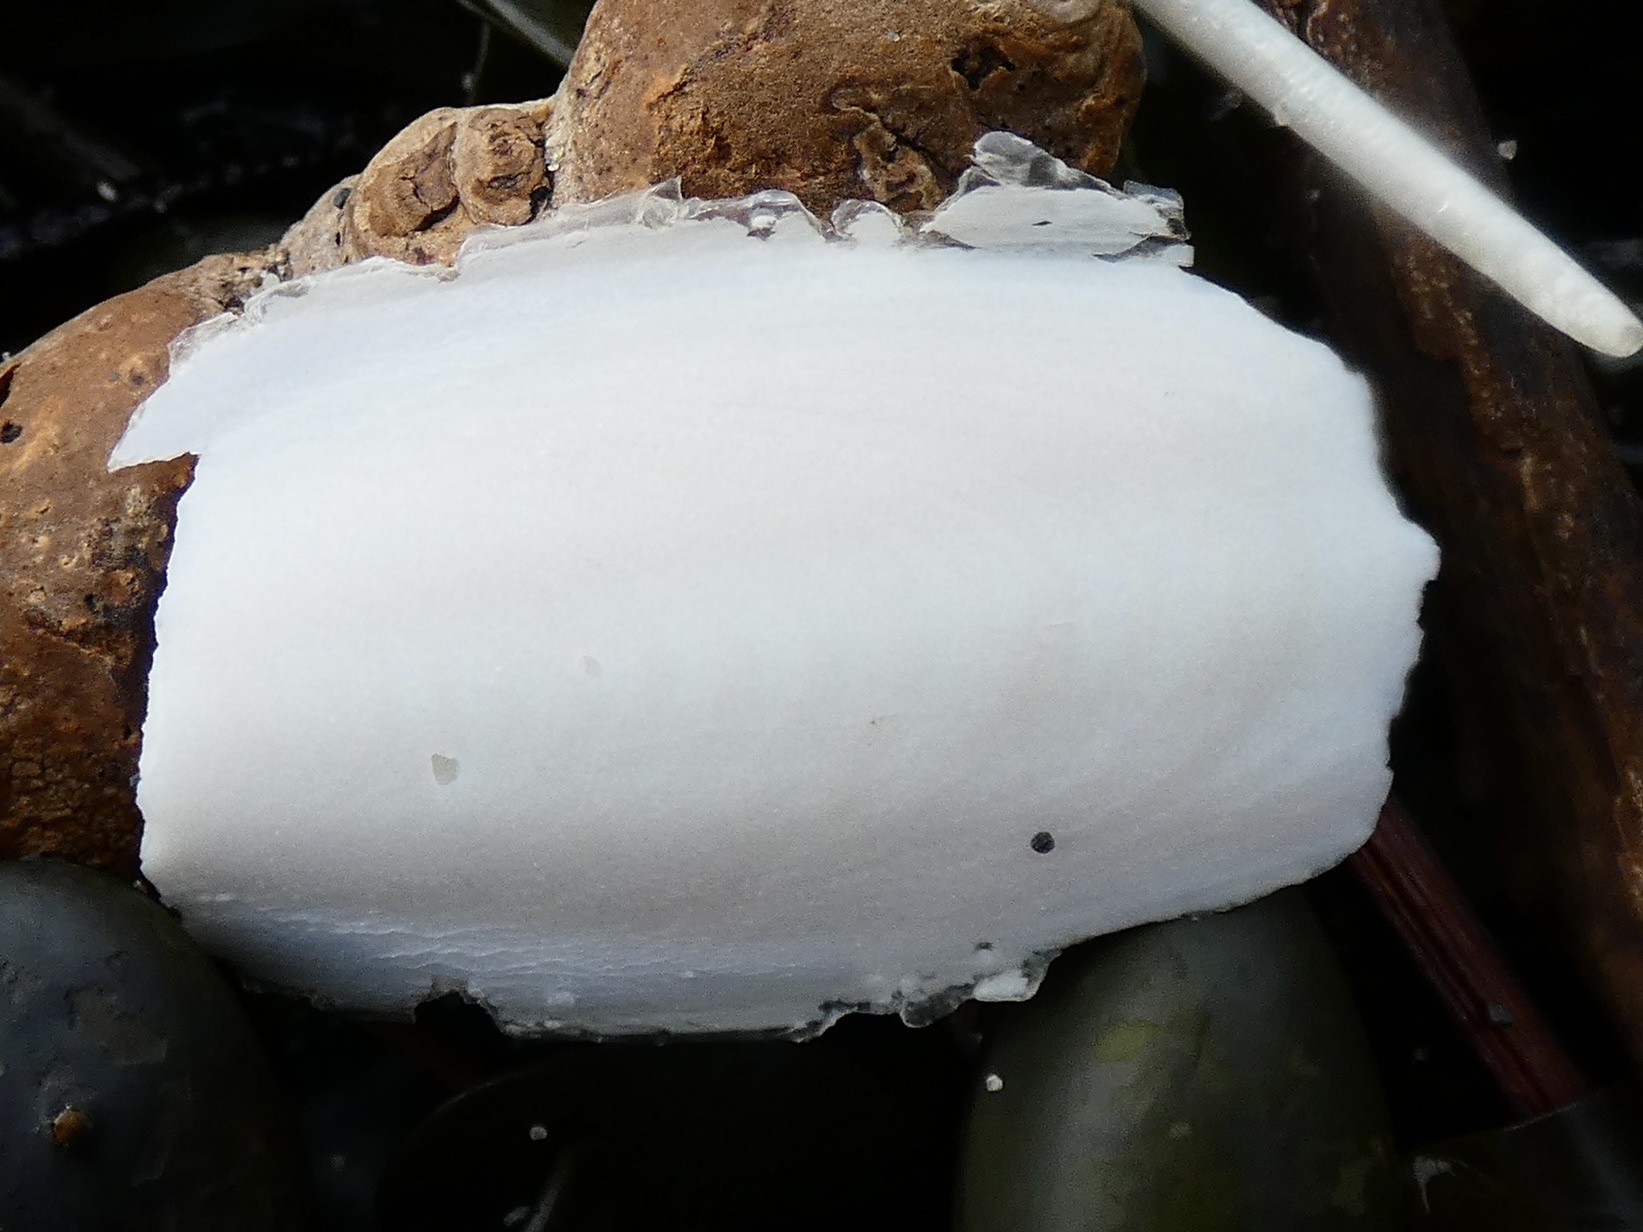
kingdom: Animalia
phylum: Mollusca
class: Cephalopoda
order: Sepiida
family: Sepiidae
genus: Sepia
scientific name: Sepia officinalis
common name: Common cuttlefish
